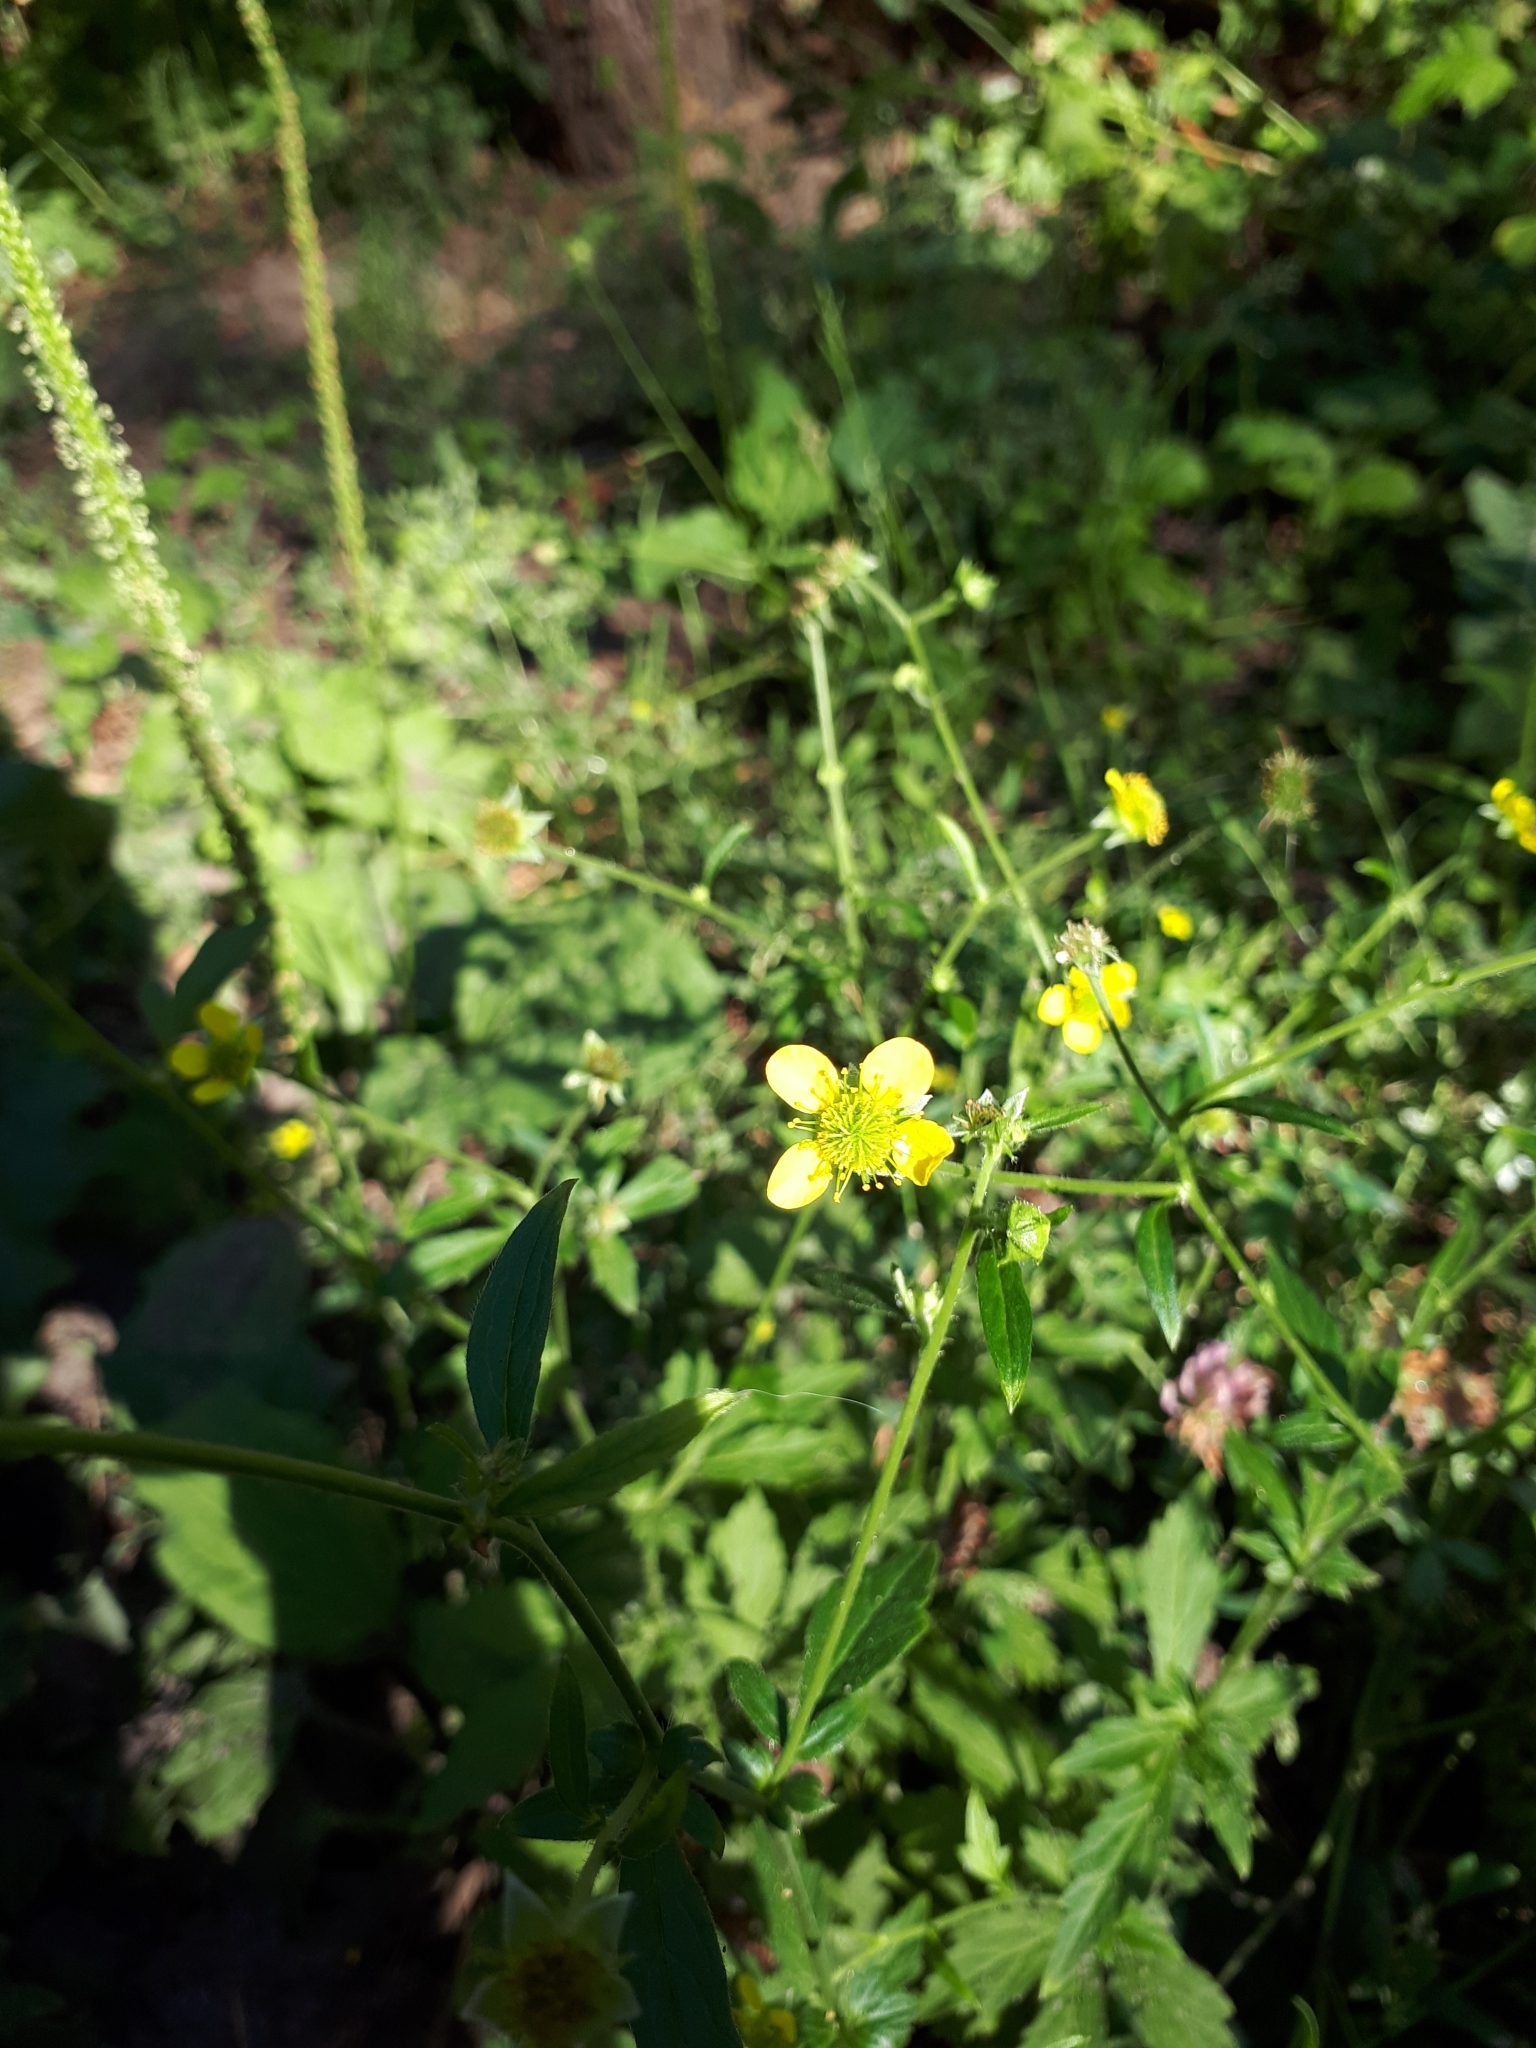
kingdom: Plantae
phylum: Tracheophyta
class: Magnoliopsida
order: Rosales
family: Rosaceae
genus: Geum
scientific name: Geum urbanum
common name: Wood avens
